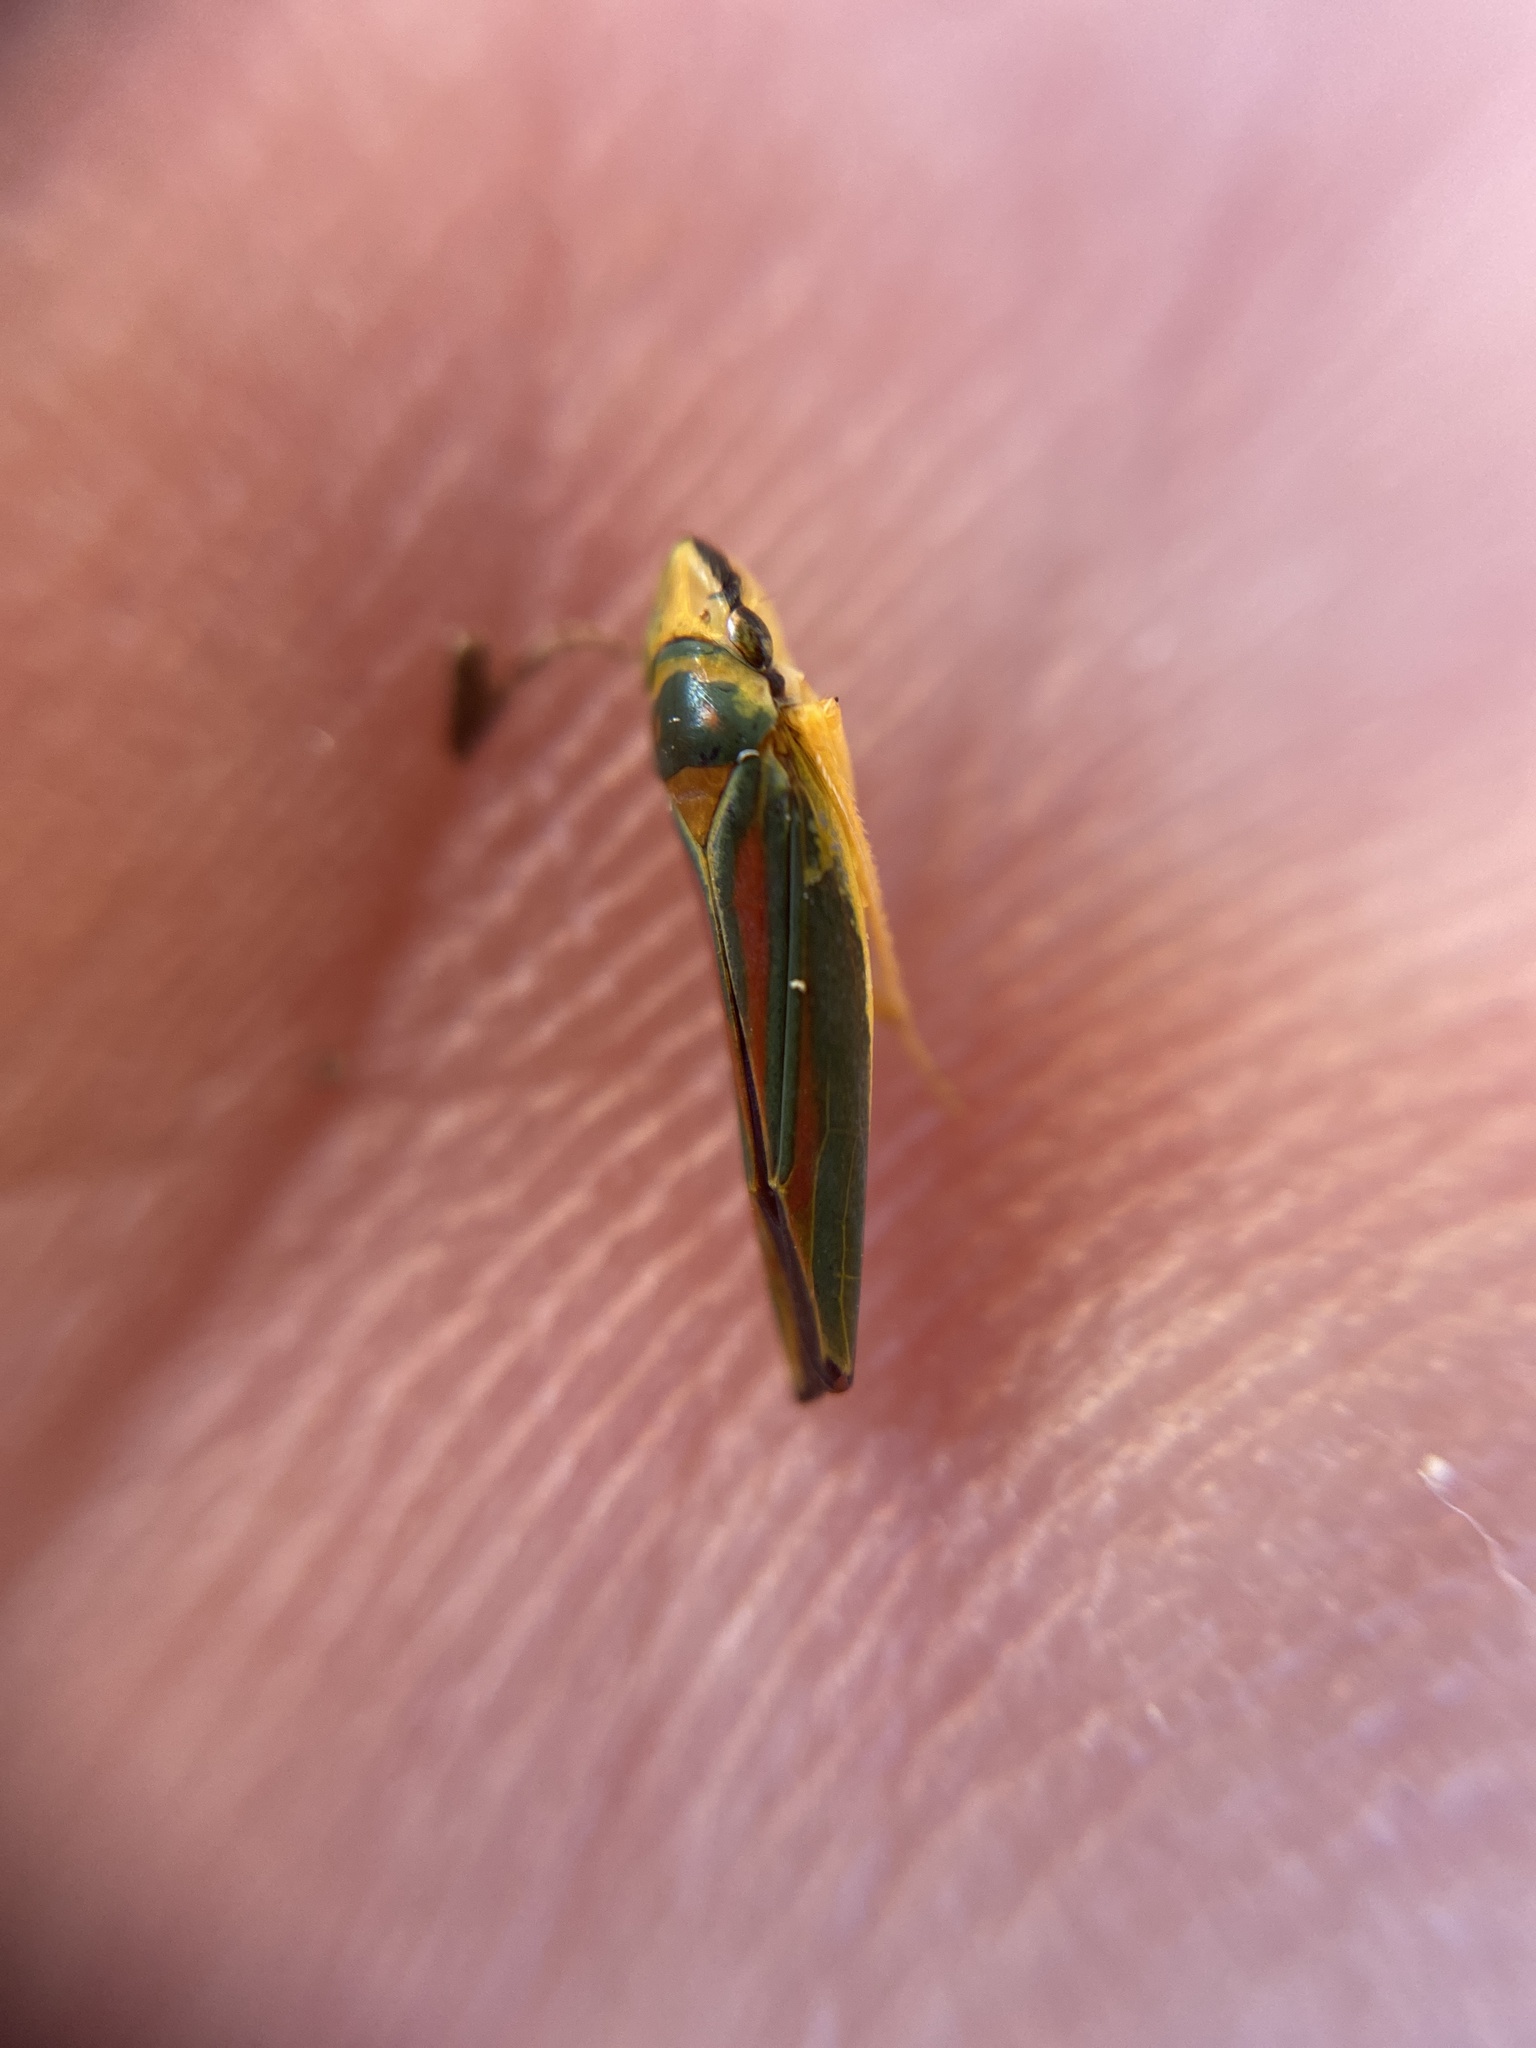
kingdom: Animalia
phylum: Arthropoda
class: Insecta
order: Hemiptera
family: Cicadellidae
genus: Graphocephala
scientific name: Graphocephala fennahi
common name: Rhododendron leafhopper
